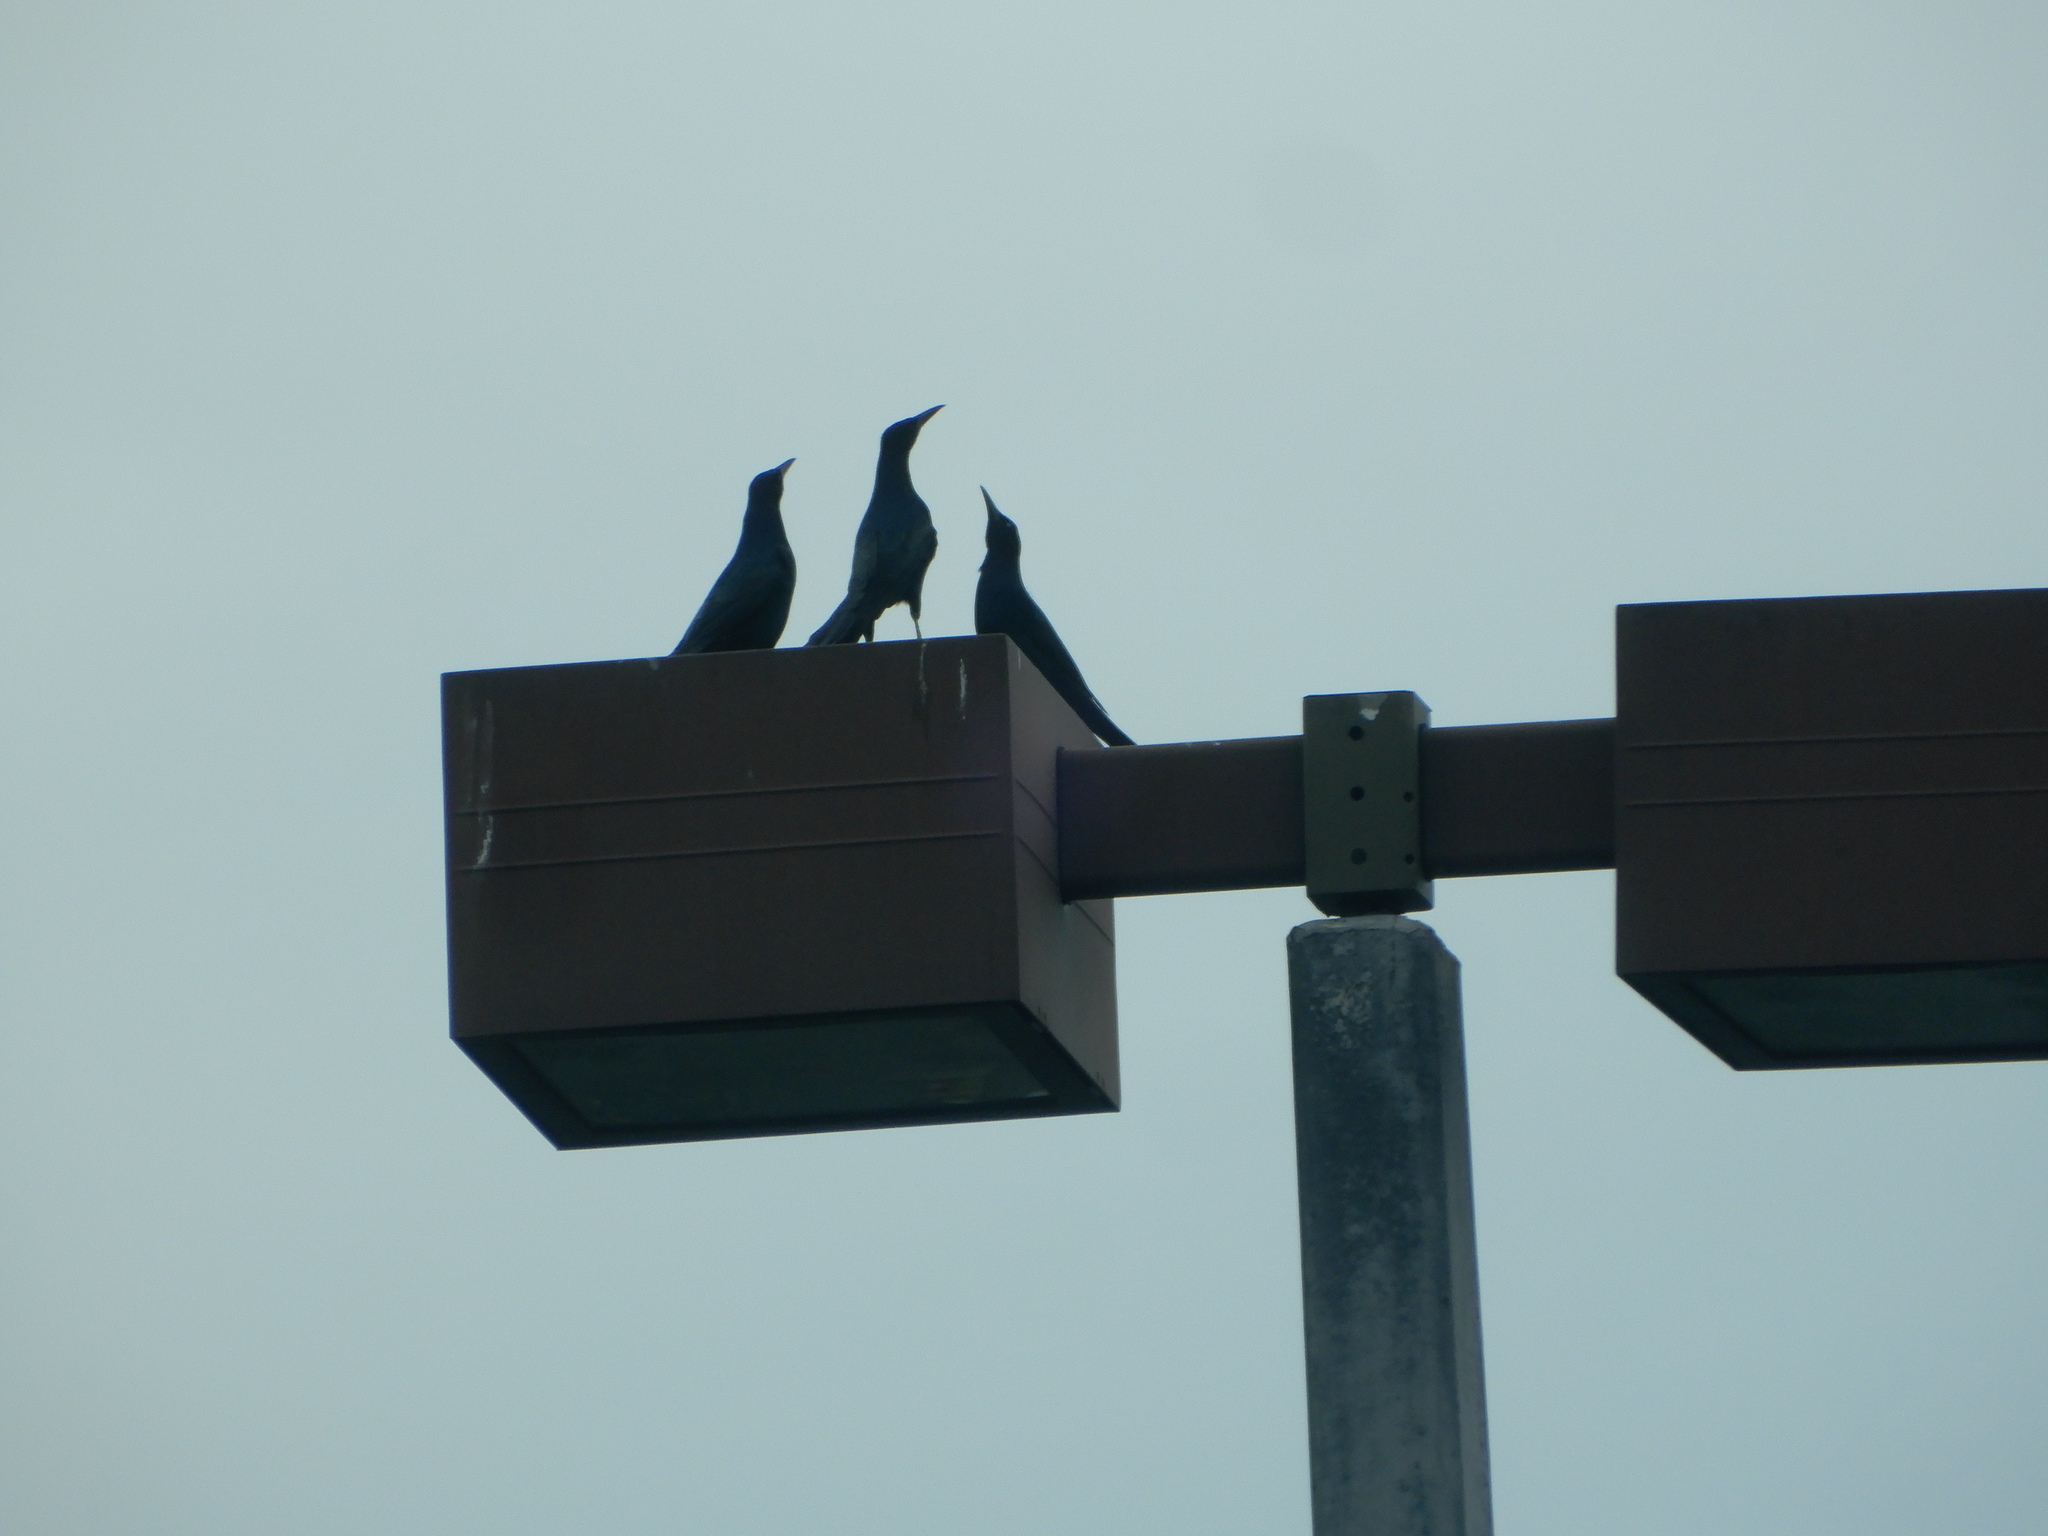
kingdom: Animalia
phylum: Chordata
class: Aves
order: Passeriformes
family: Icteridae
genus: Quiscalus
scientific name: Quiscalus major
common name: Boat-tailed grackle
